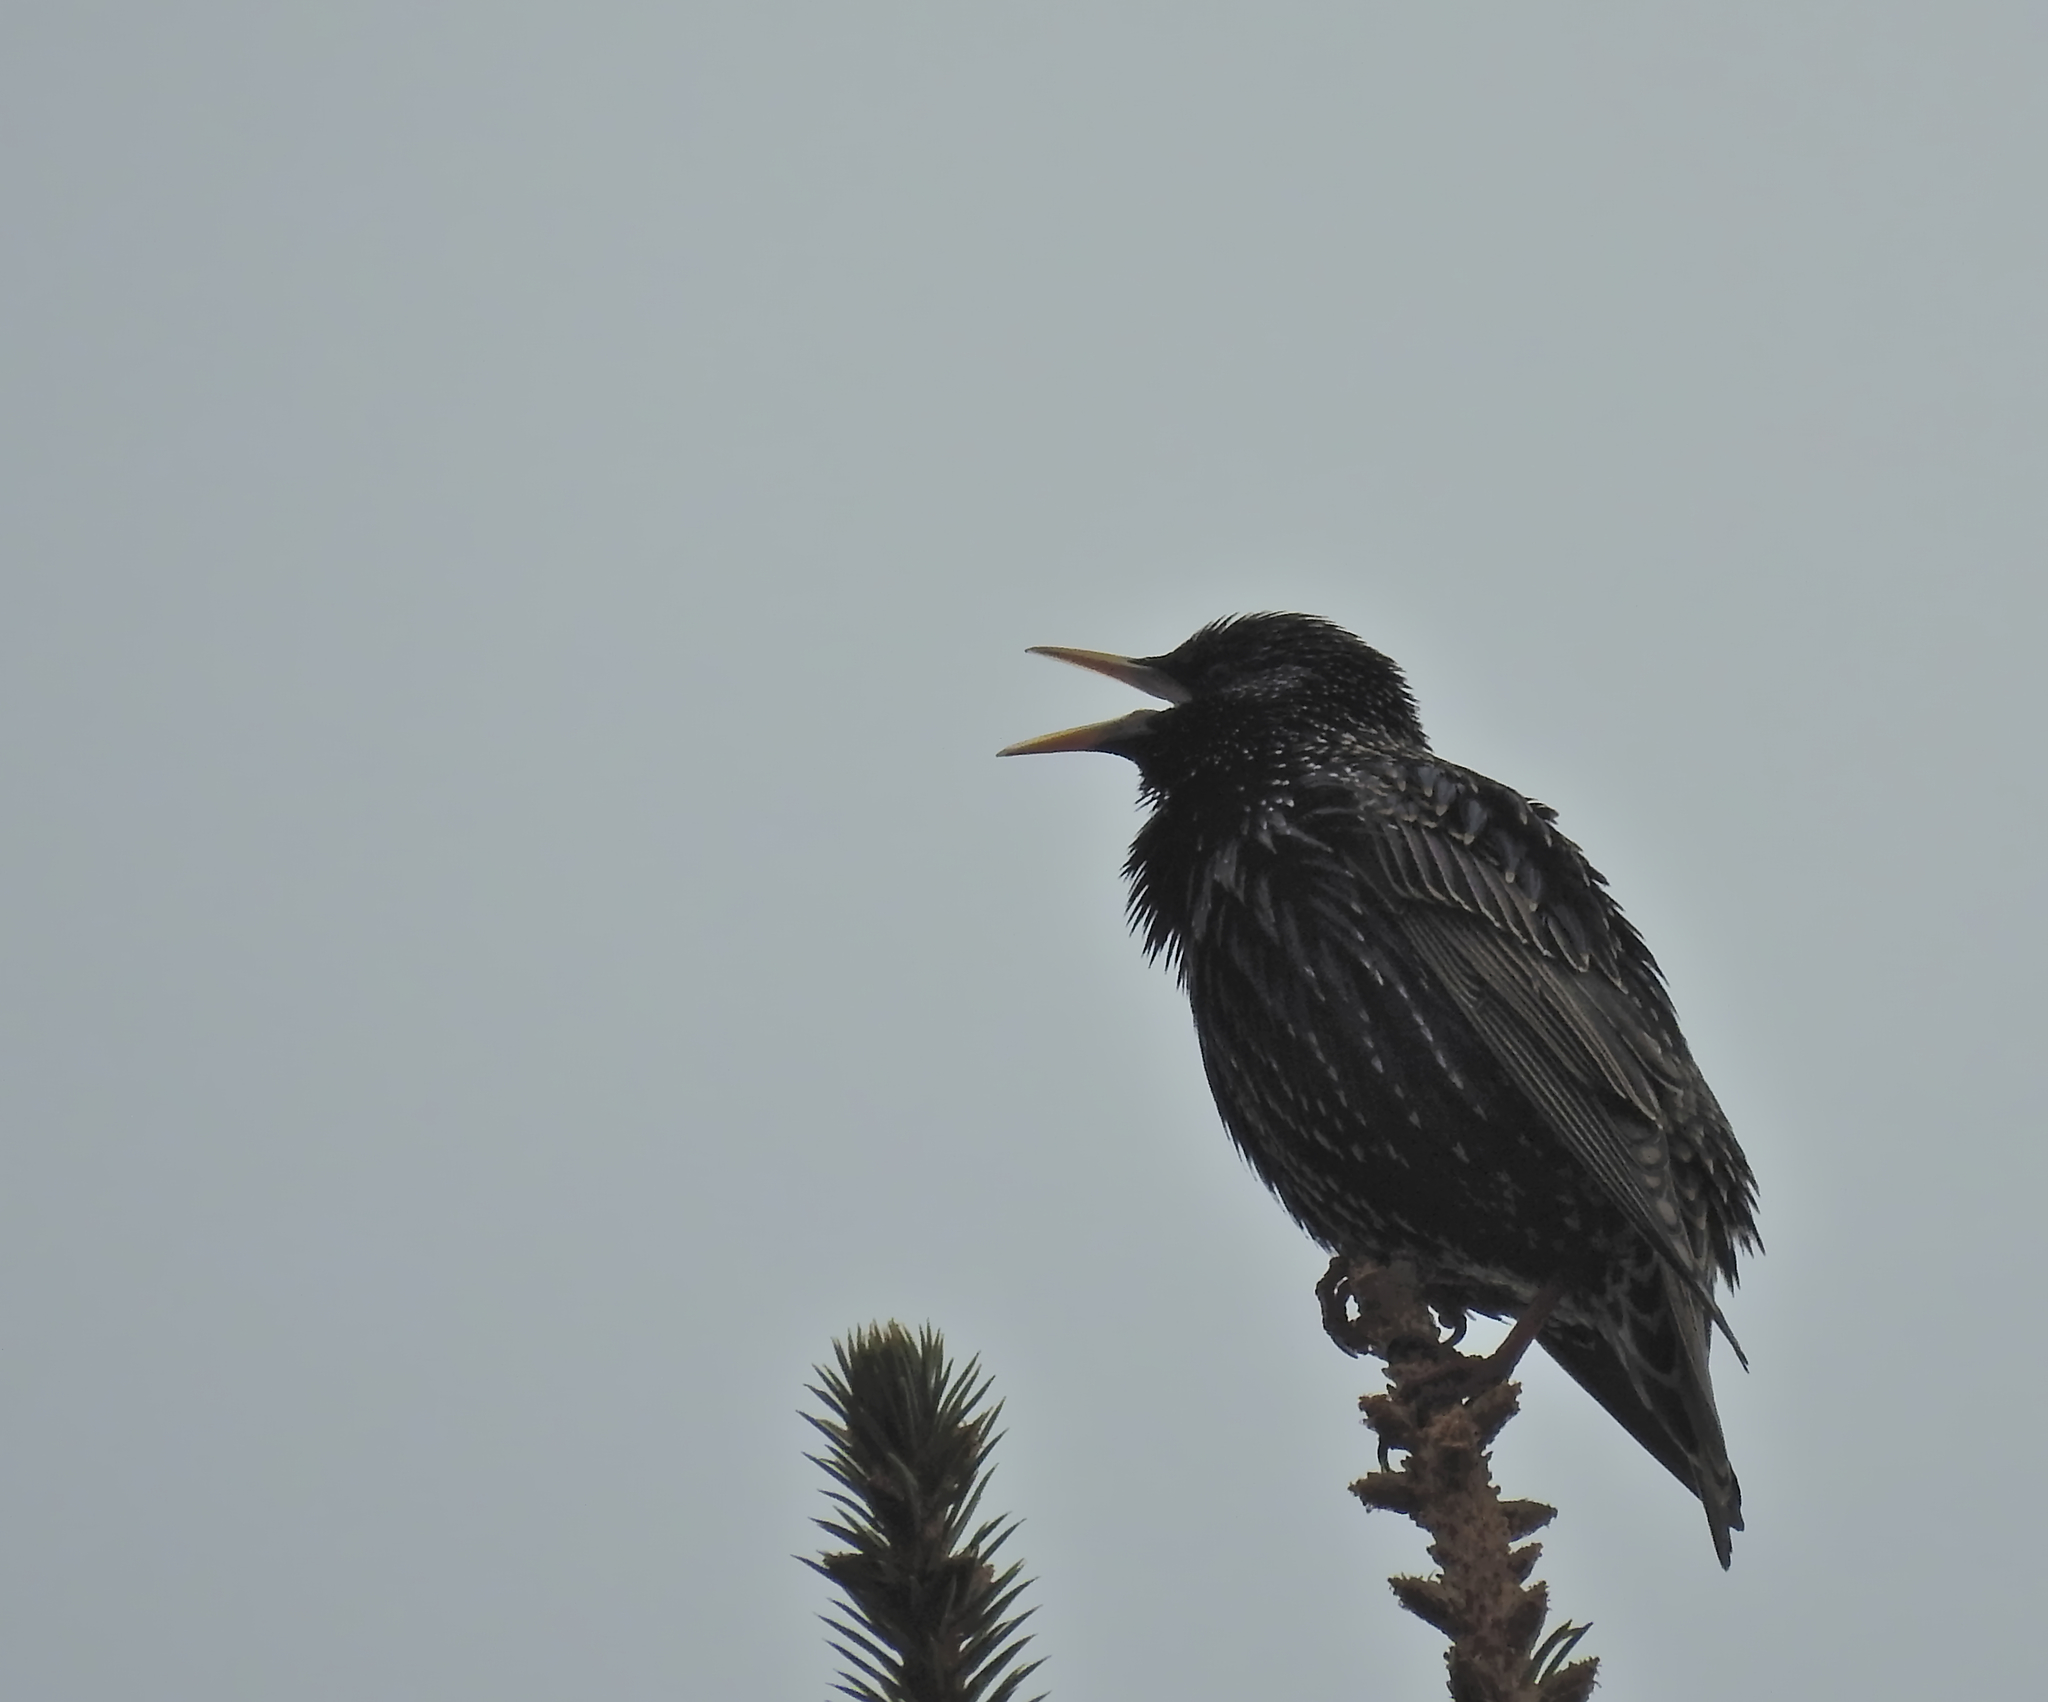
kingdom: Animalia
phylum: Chordata
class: Aves
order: Passeriformes
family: Sturnidae
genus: Sturnus
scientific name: Sturnus vulgaris
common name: Common starling
